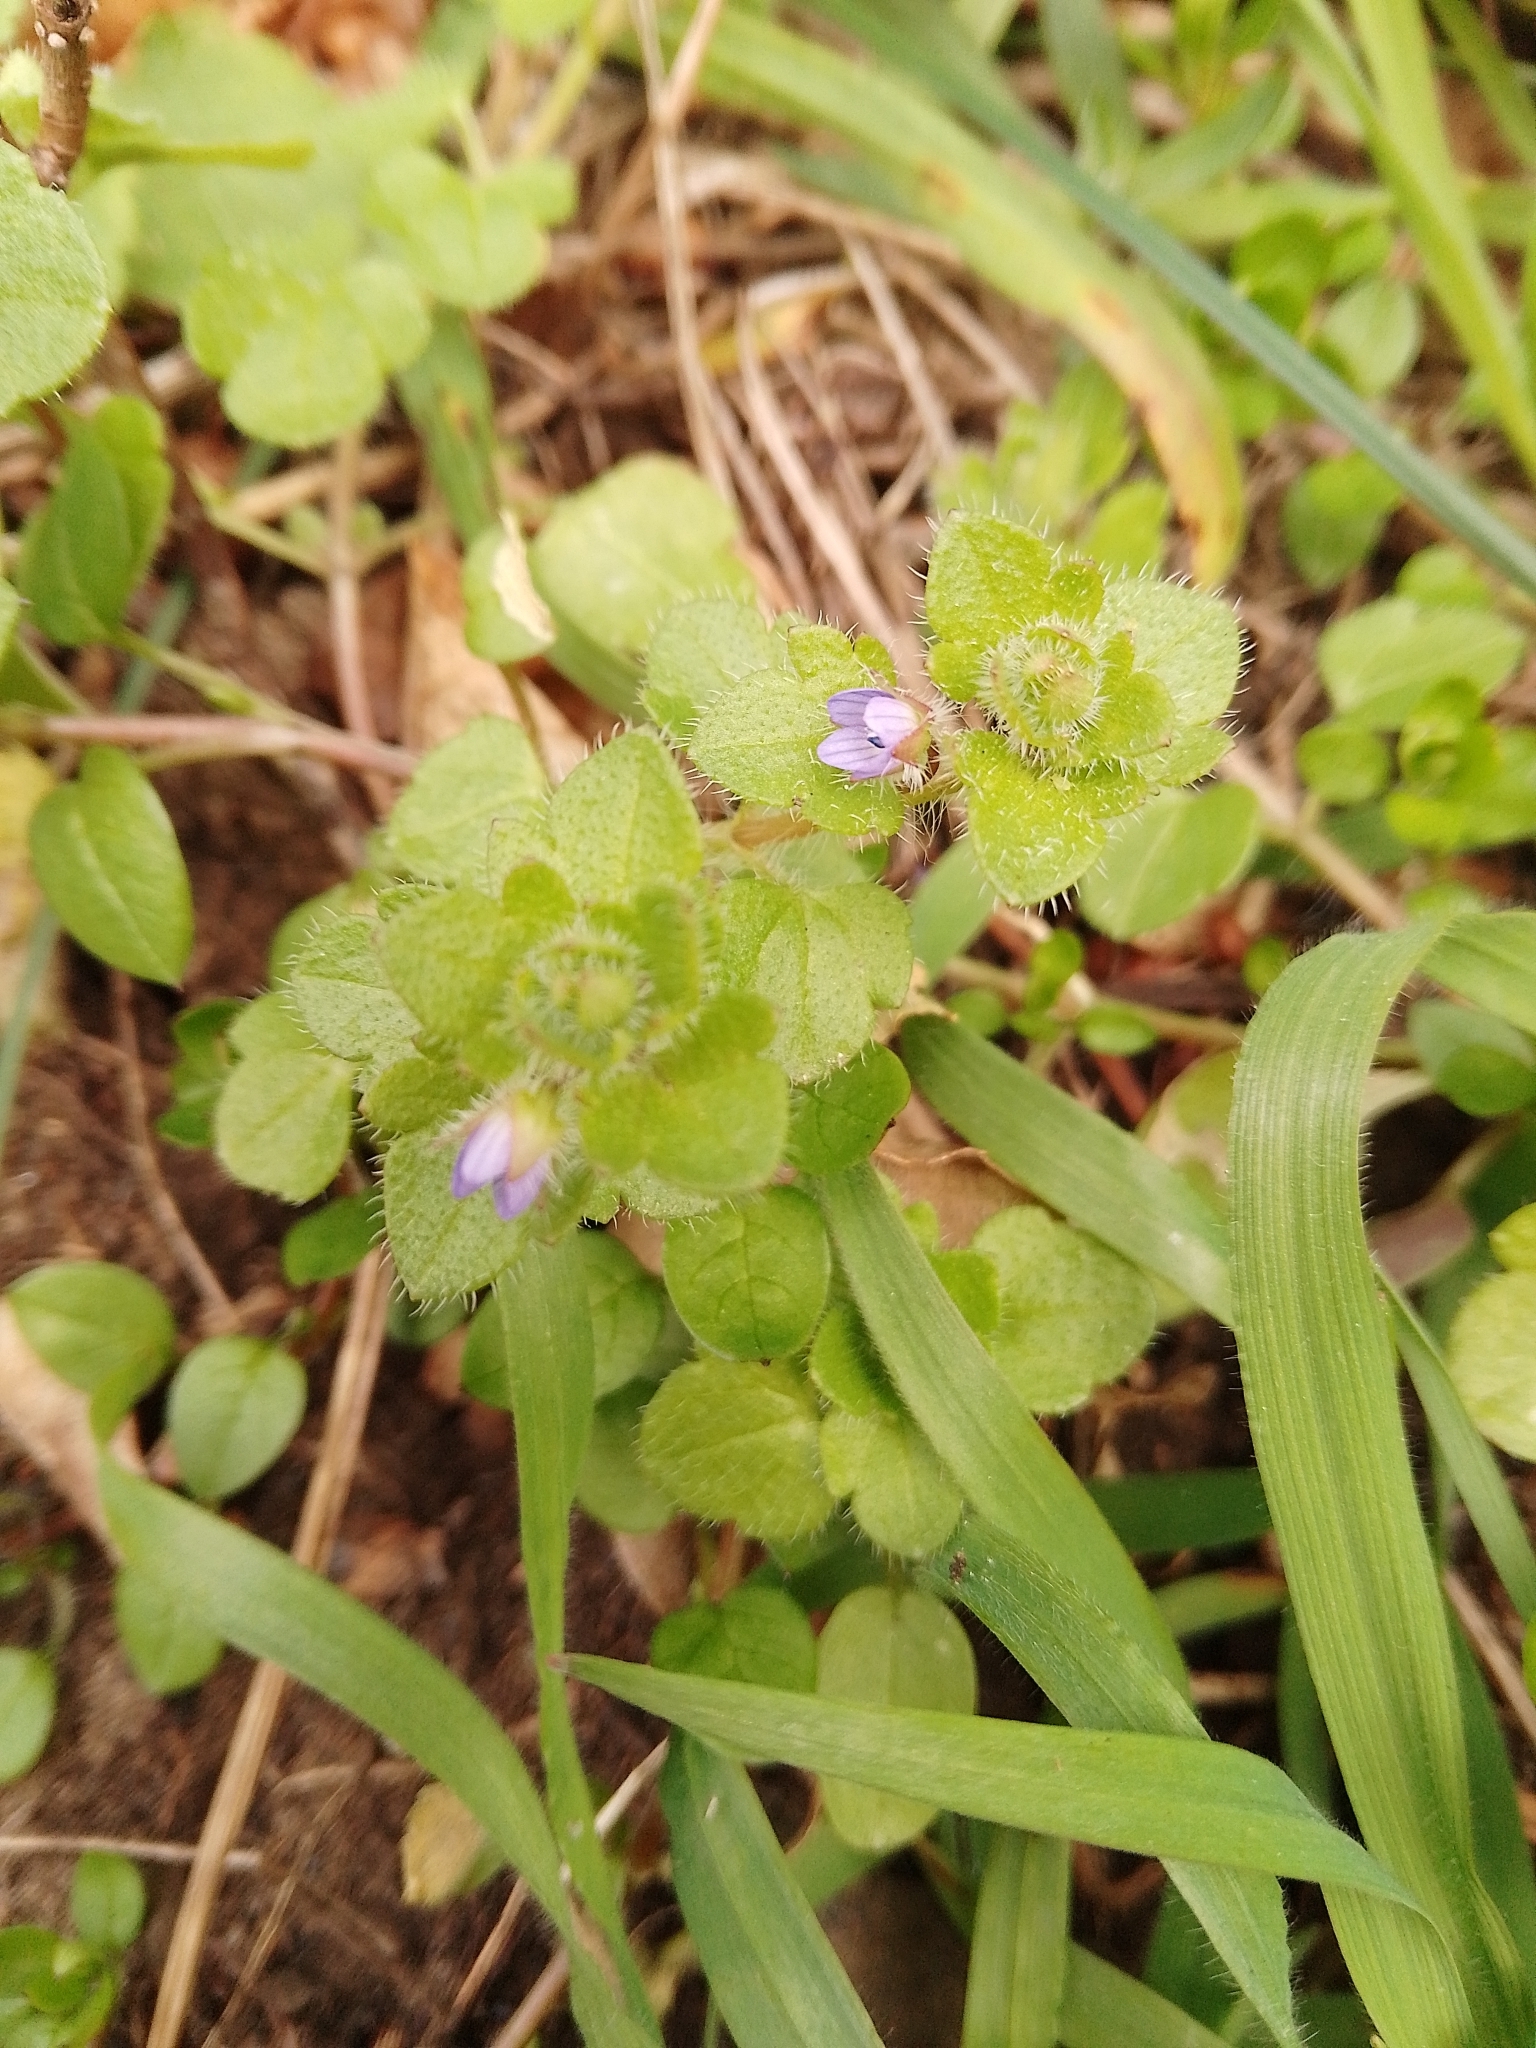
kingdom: Plantae
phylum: Tracheophyta
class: Magnoliopsida
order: Lamiales
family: Plantaginaceae
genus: Veronica
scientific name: Veronica hederifolia
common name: Ivy-leaved speedwell
